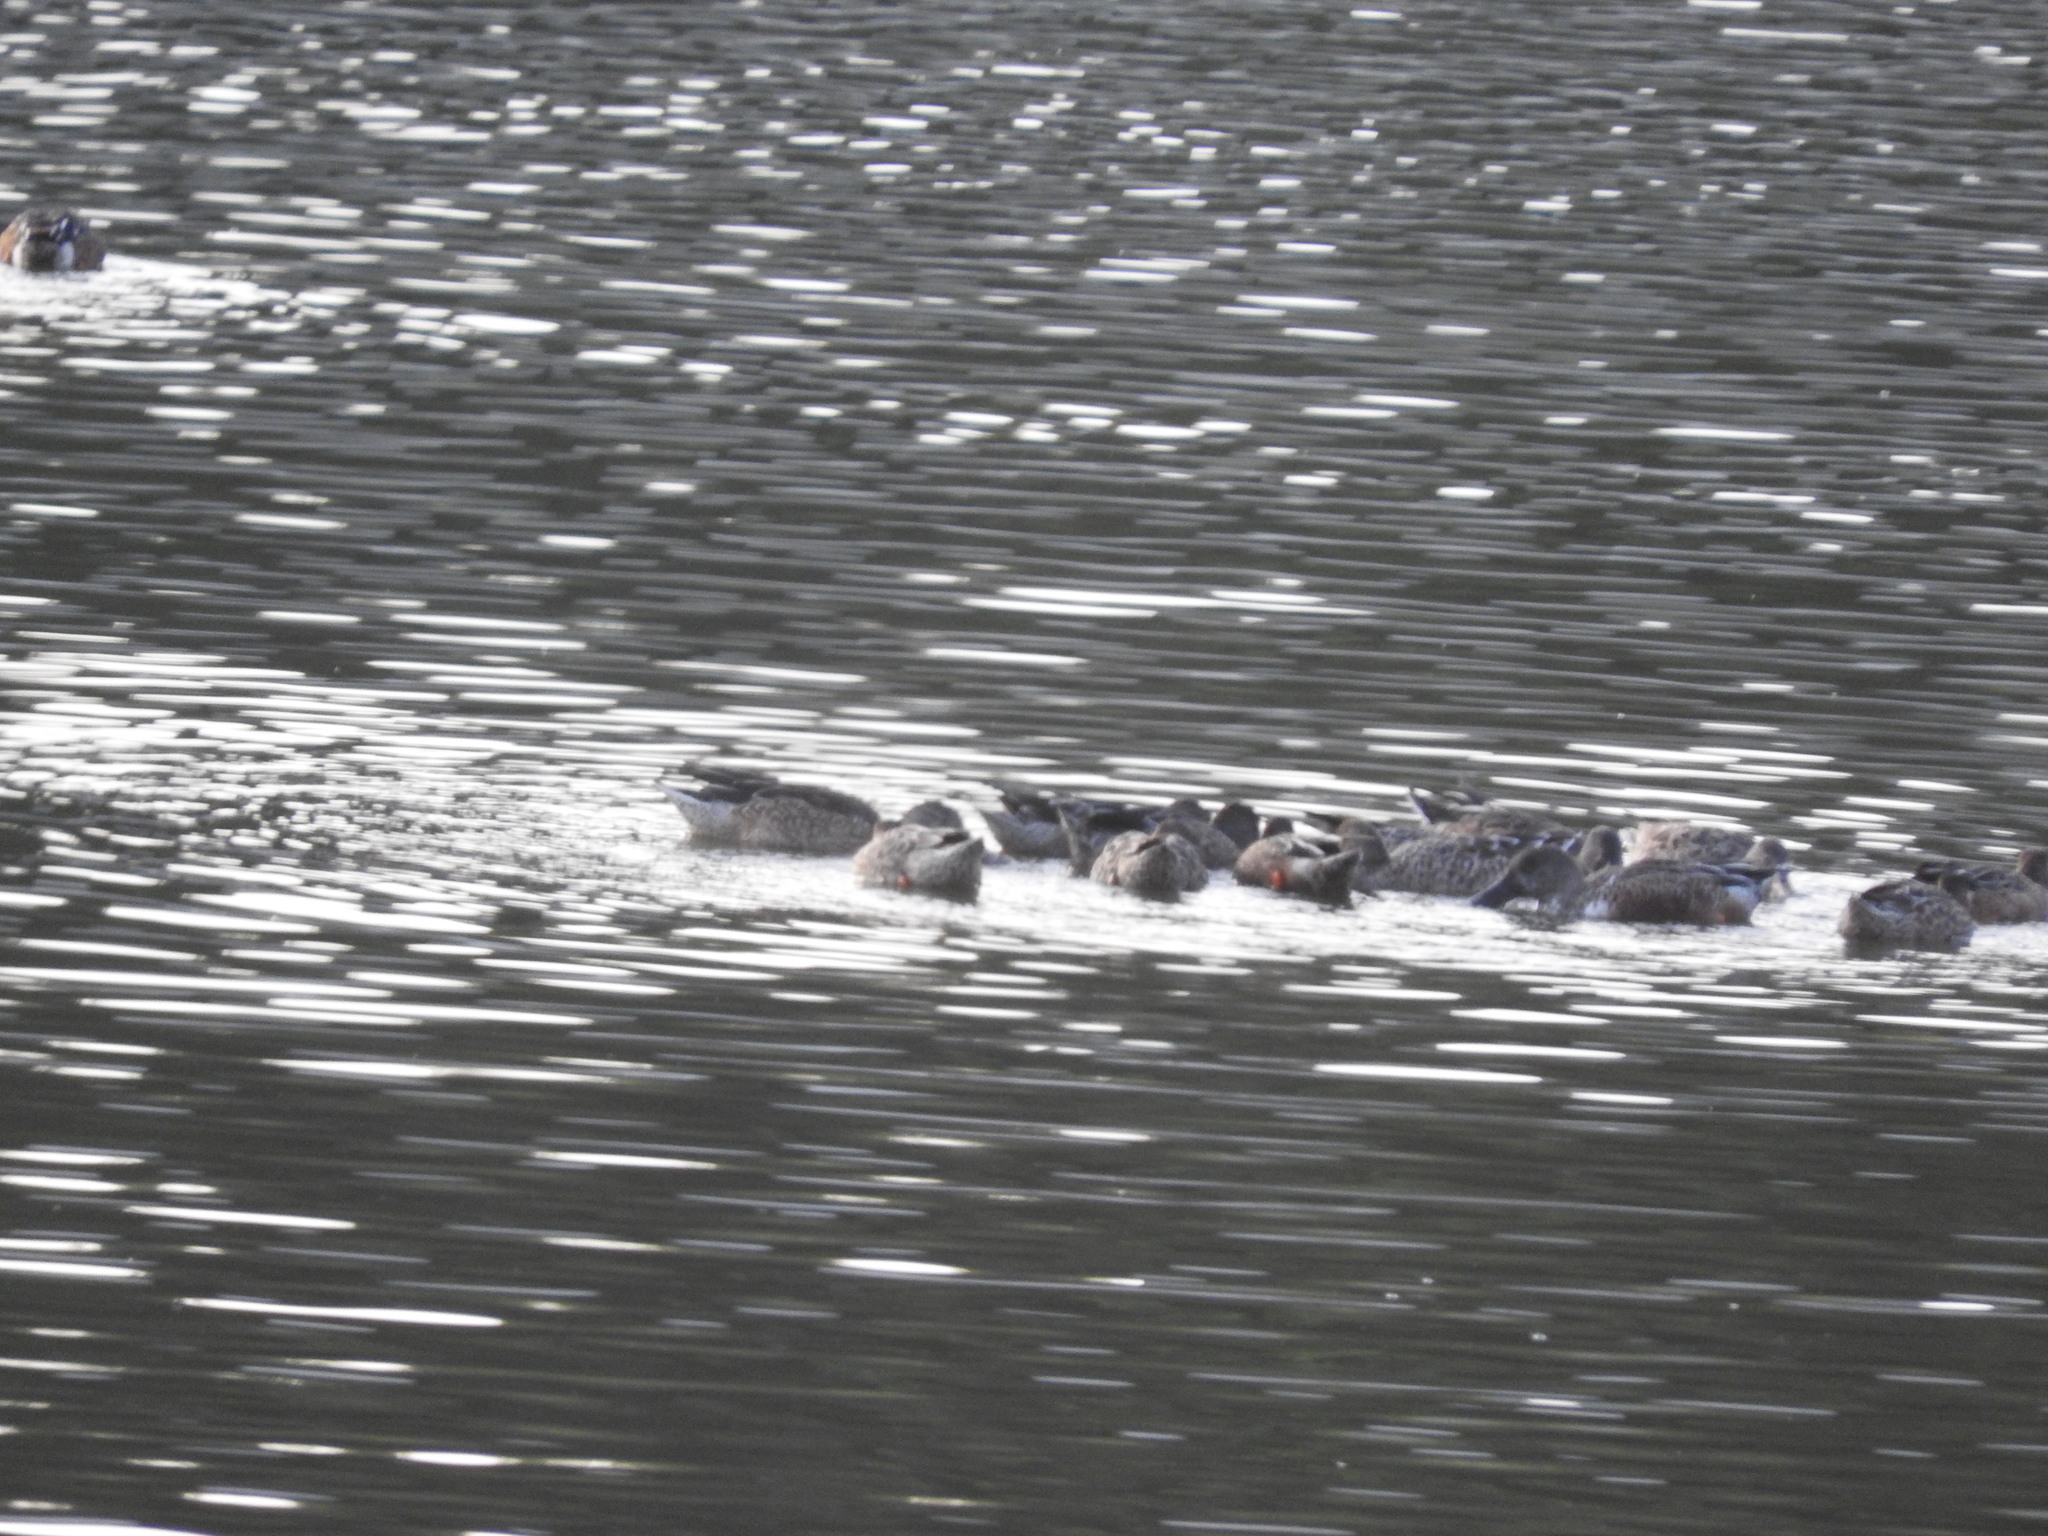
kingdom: Animalia
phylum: Chordata
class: Aves
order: Anseriformes
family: Anatidae
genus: Spatula
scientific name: Spatula clypeata
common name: Northern shoveler
